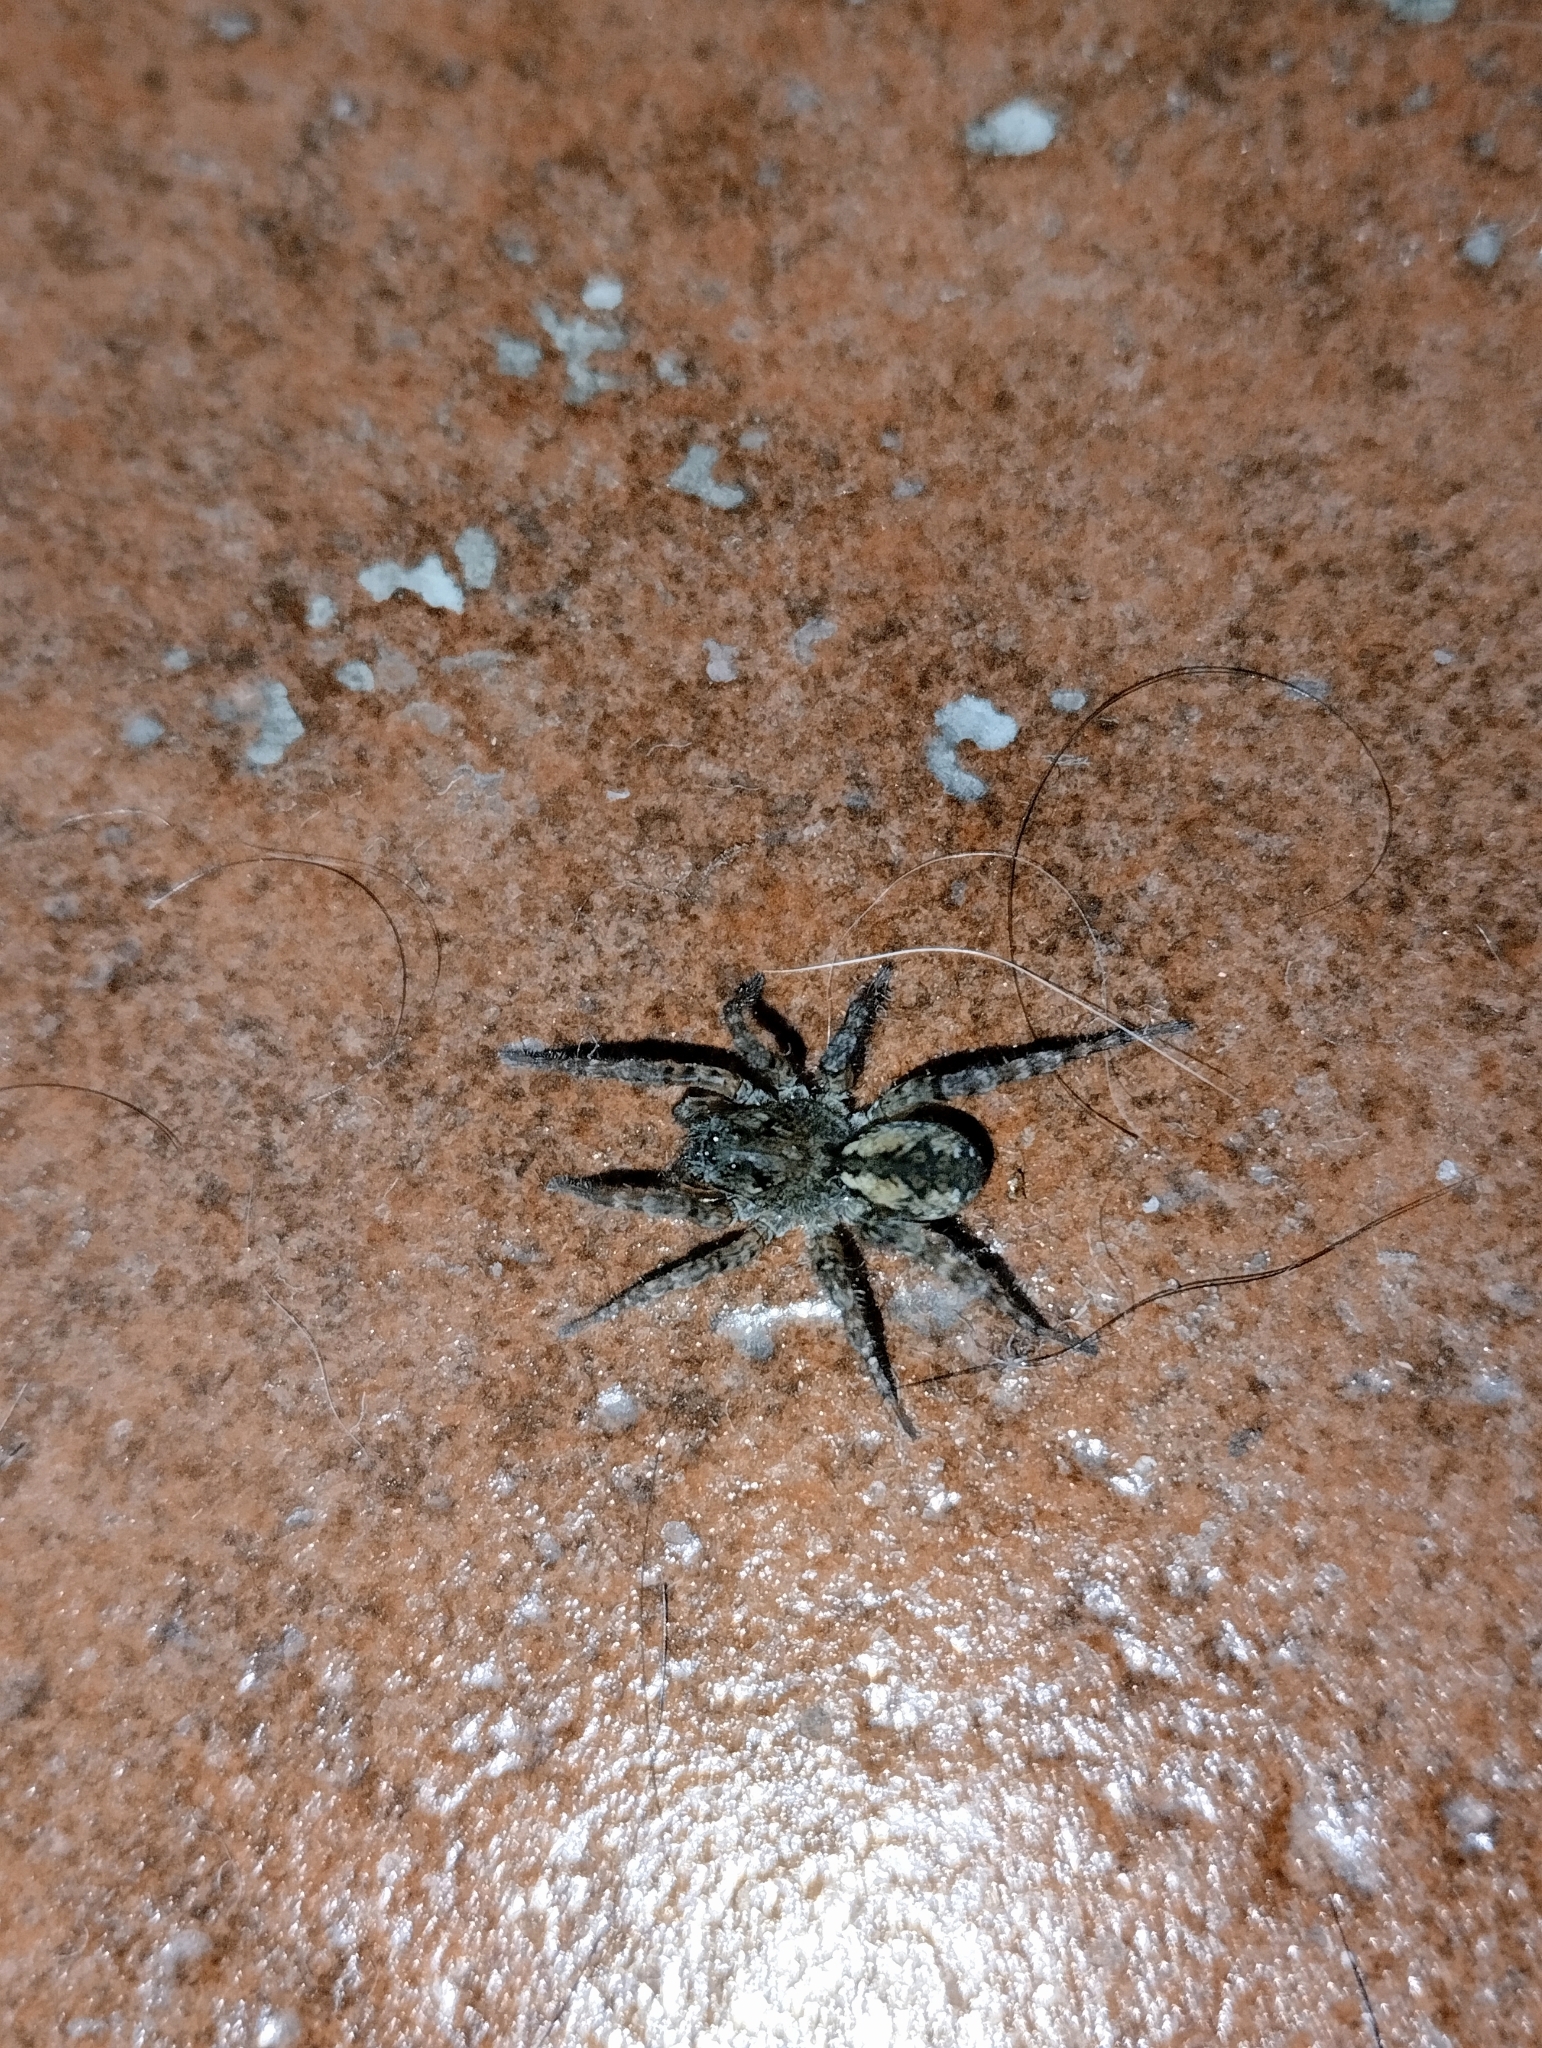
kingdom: Animalia
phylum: Arthropoda
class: Arachnida
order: Araneae
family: Lycosidae
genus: Paratrochosina
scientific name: Paratrochosina amica
